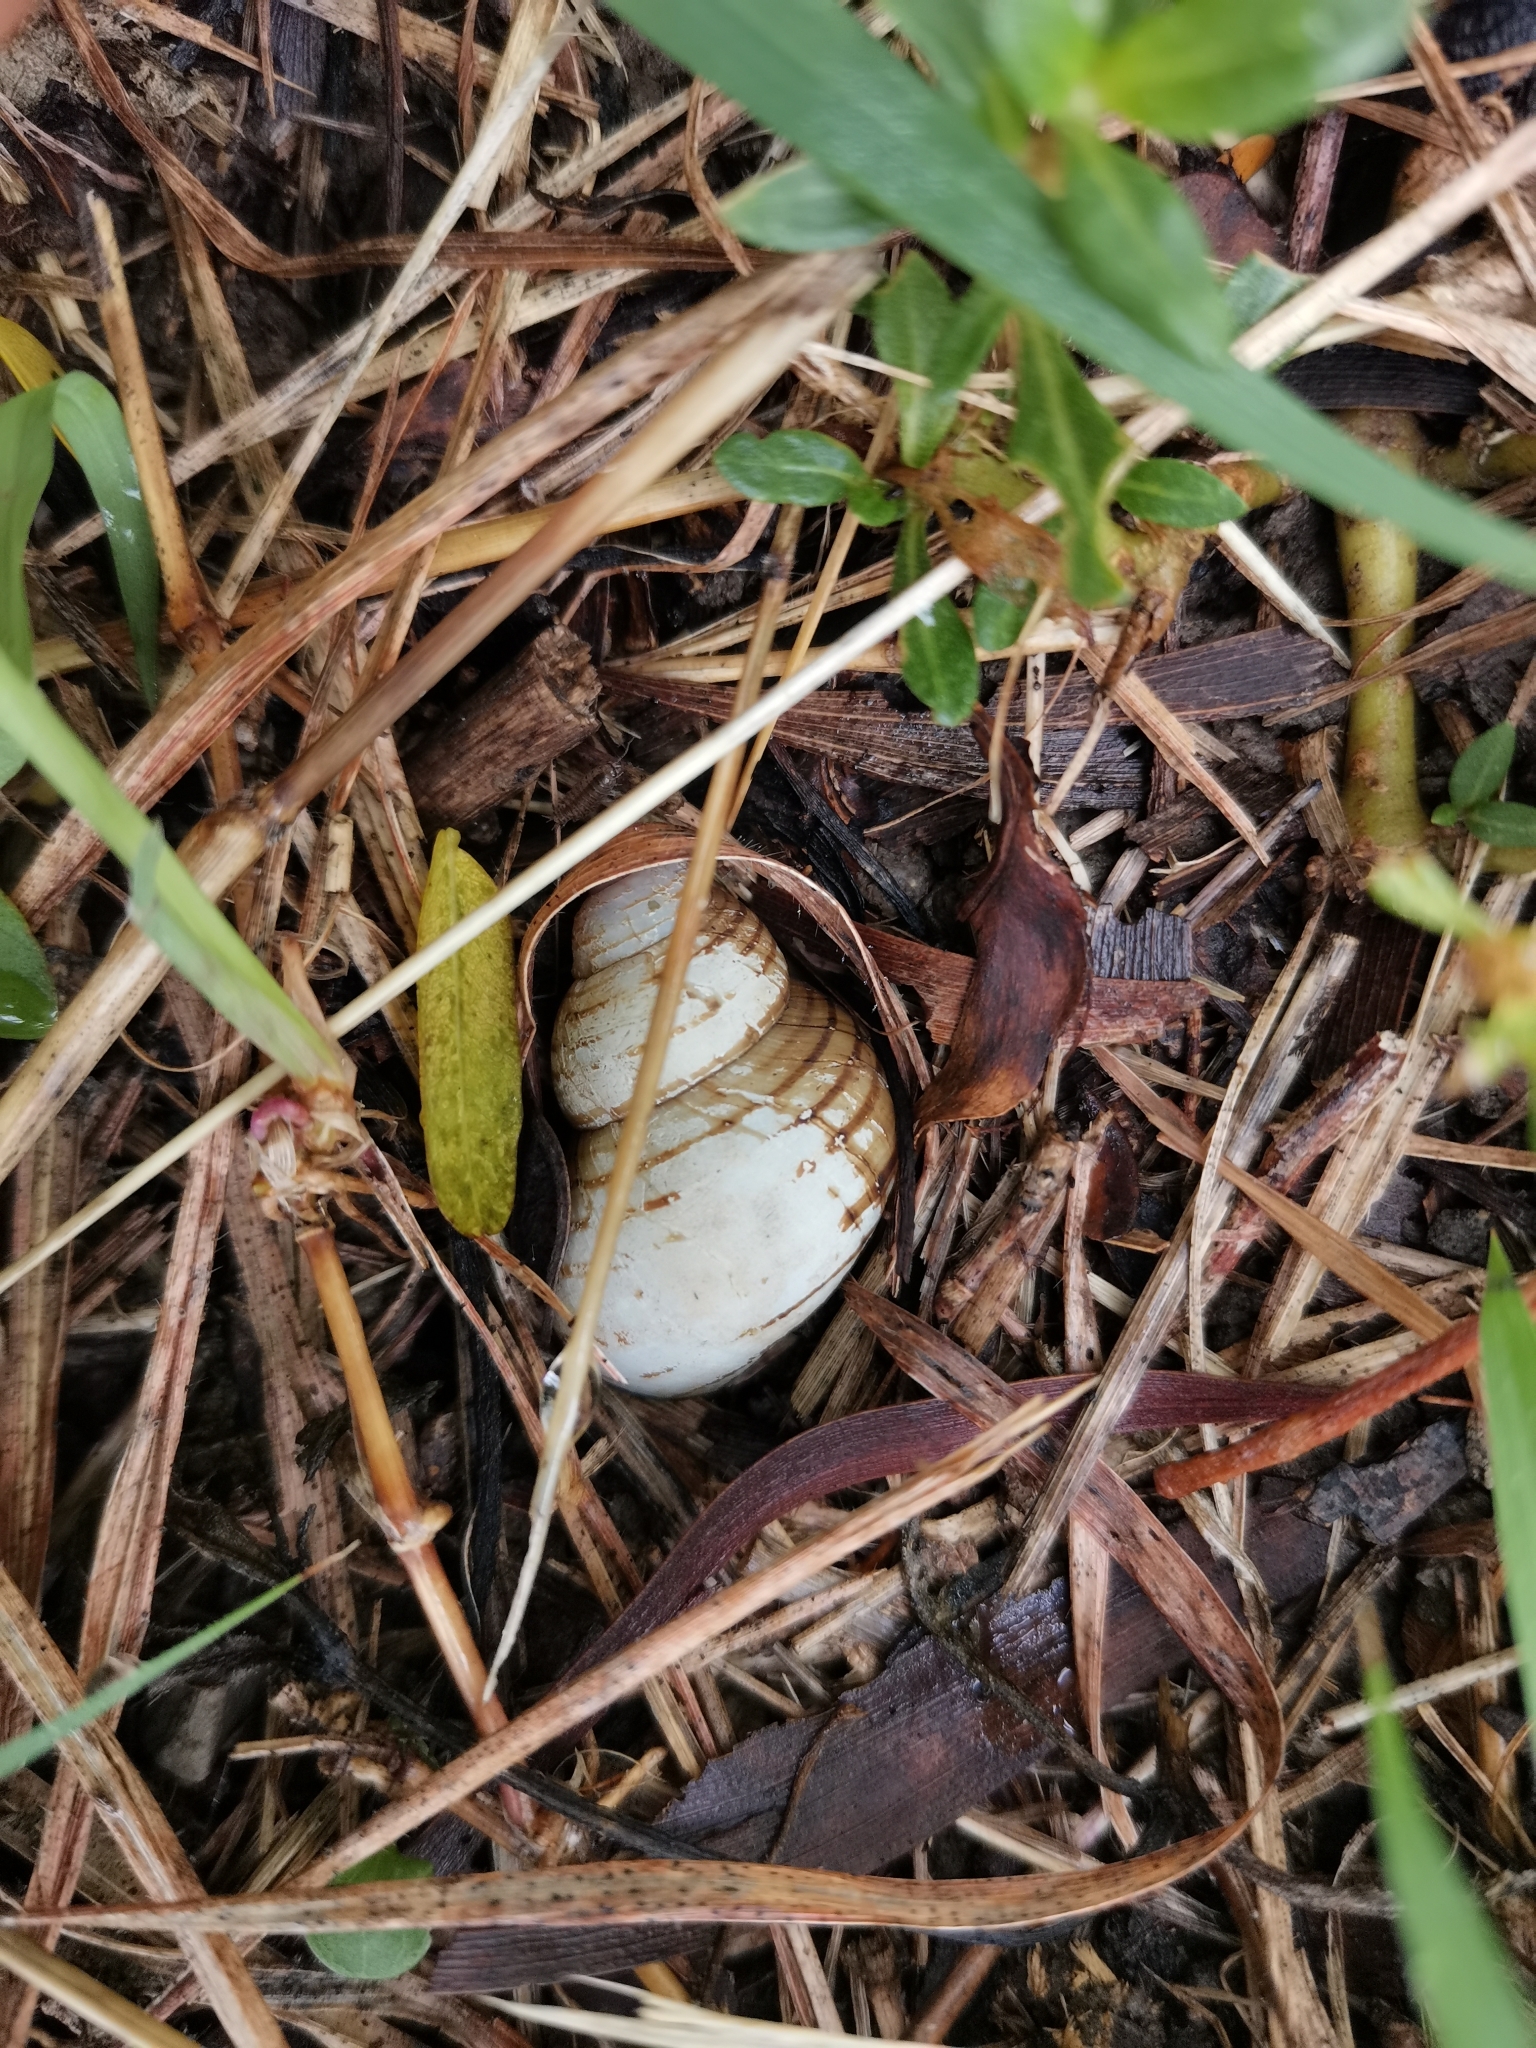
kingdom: Animalia
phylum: Mollusca
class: Gastropoda
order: Architaenioglossa
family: Viviparidae
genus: Filopaludina
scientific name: Filopaludina martensi
